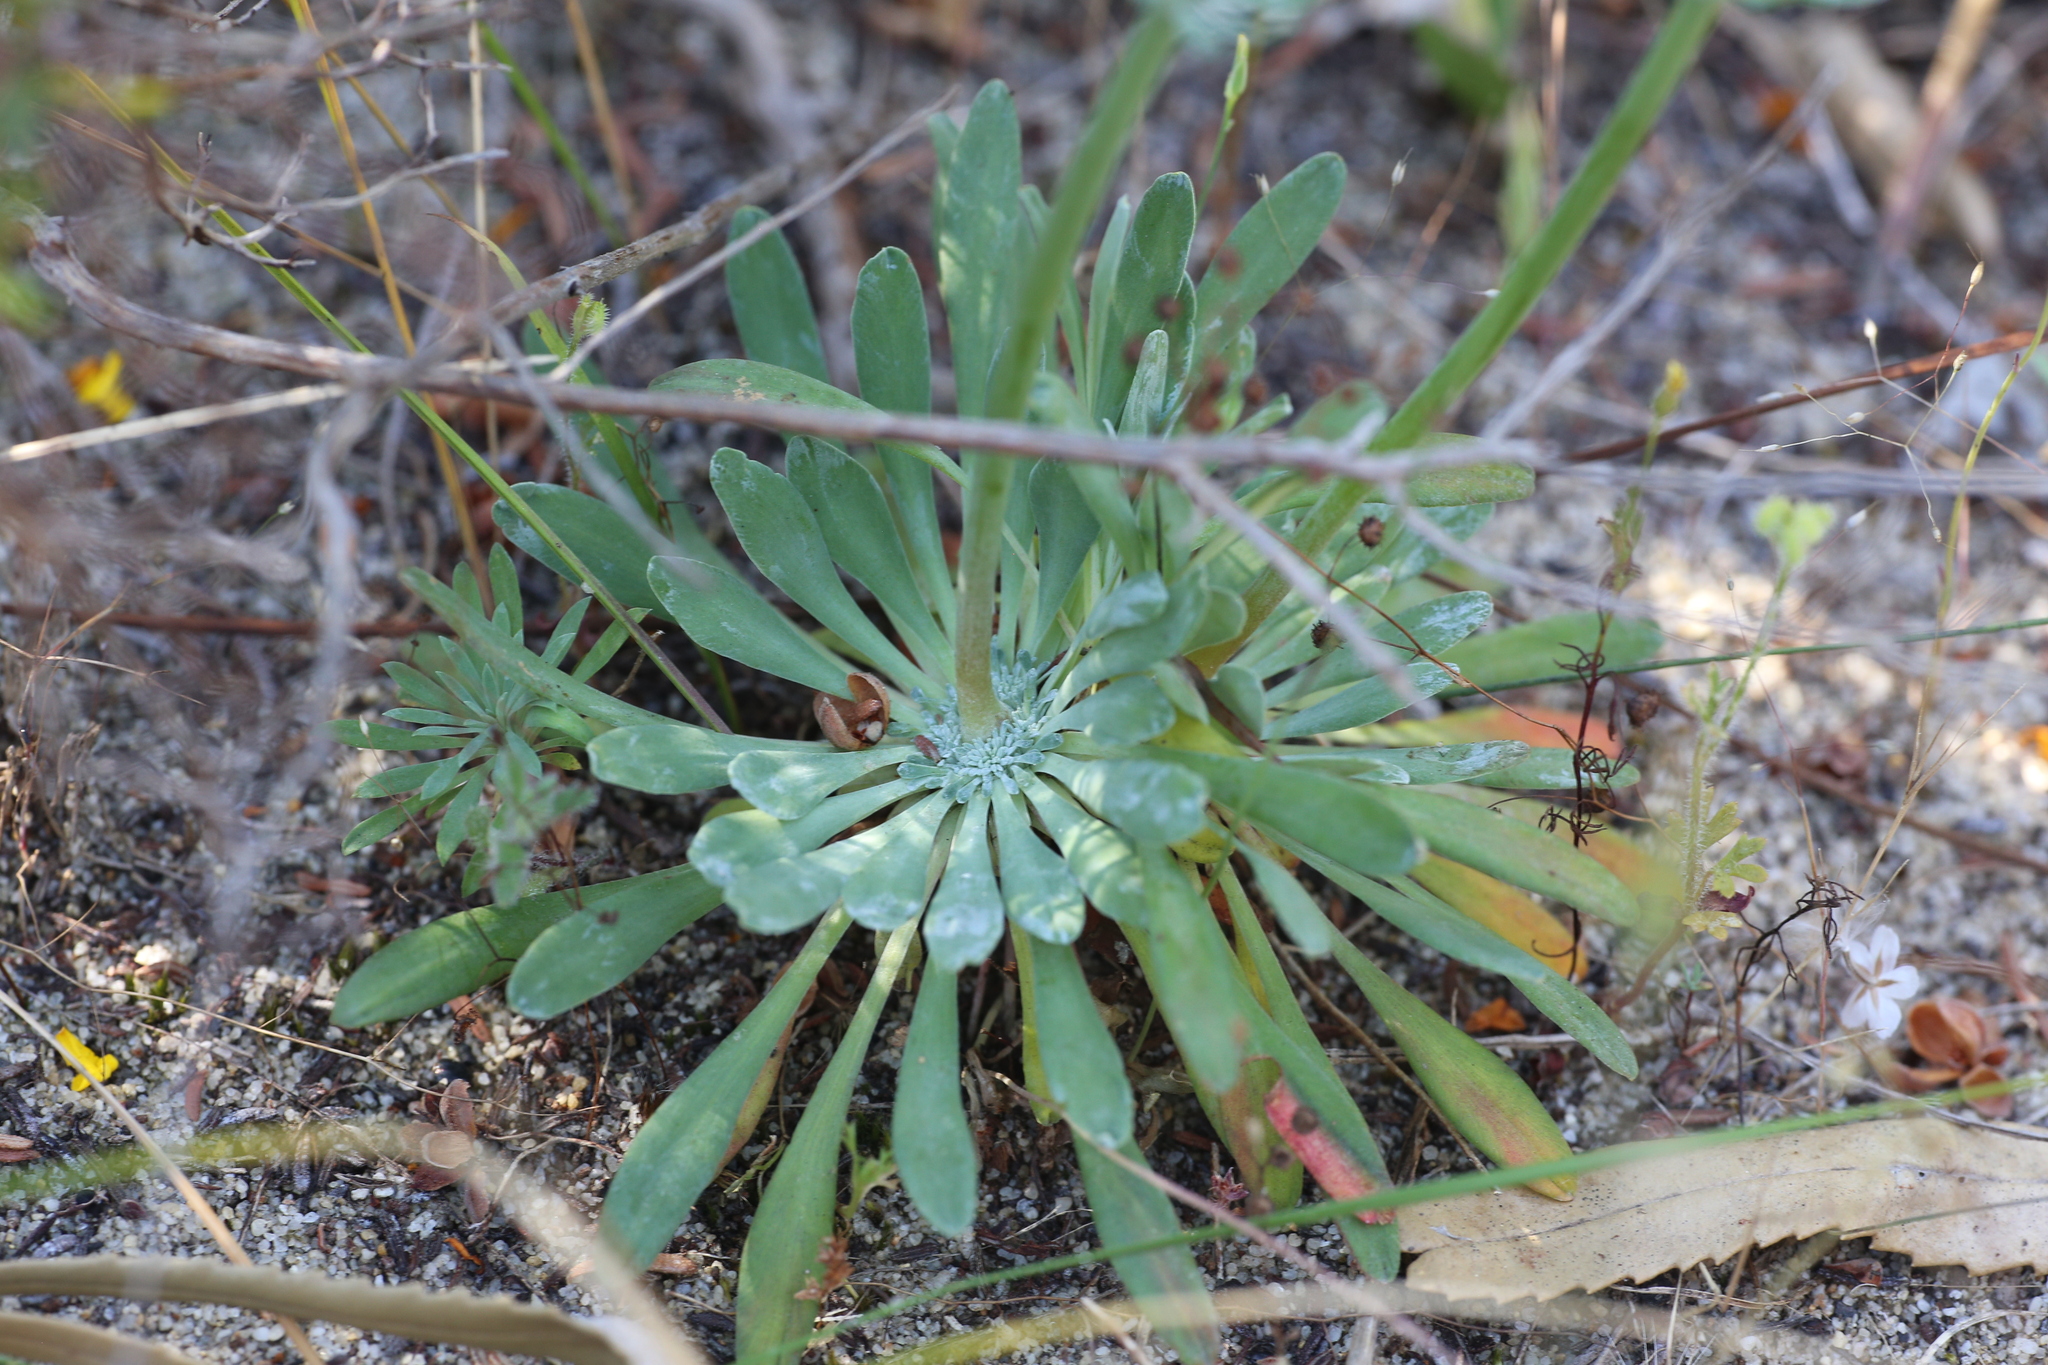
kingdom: Plantae
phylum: Tracheophyta
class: Magnoliopsida
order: Asterales
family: Stylidiaceae
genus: Stylidium
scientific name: Stylidium tenue
